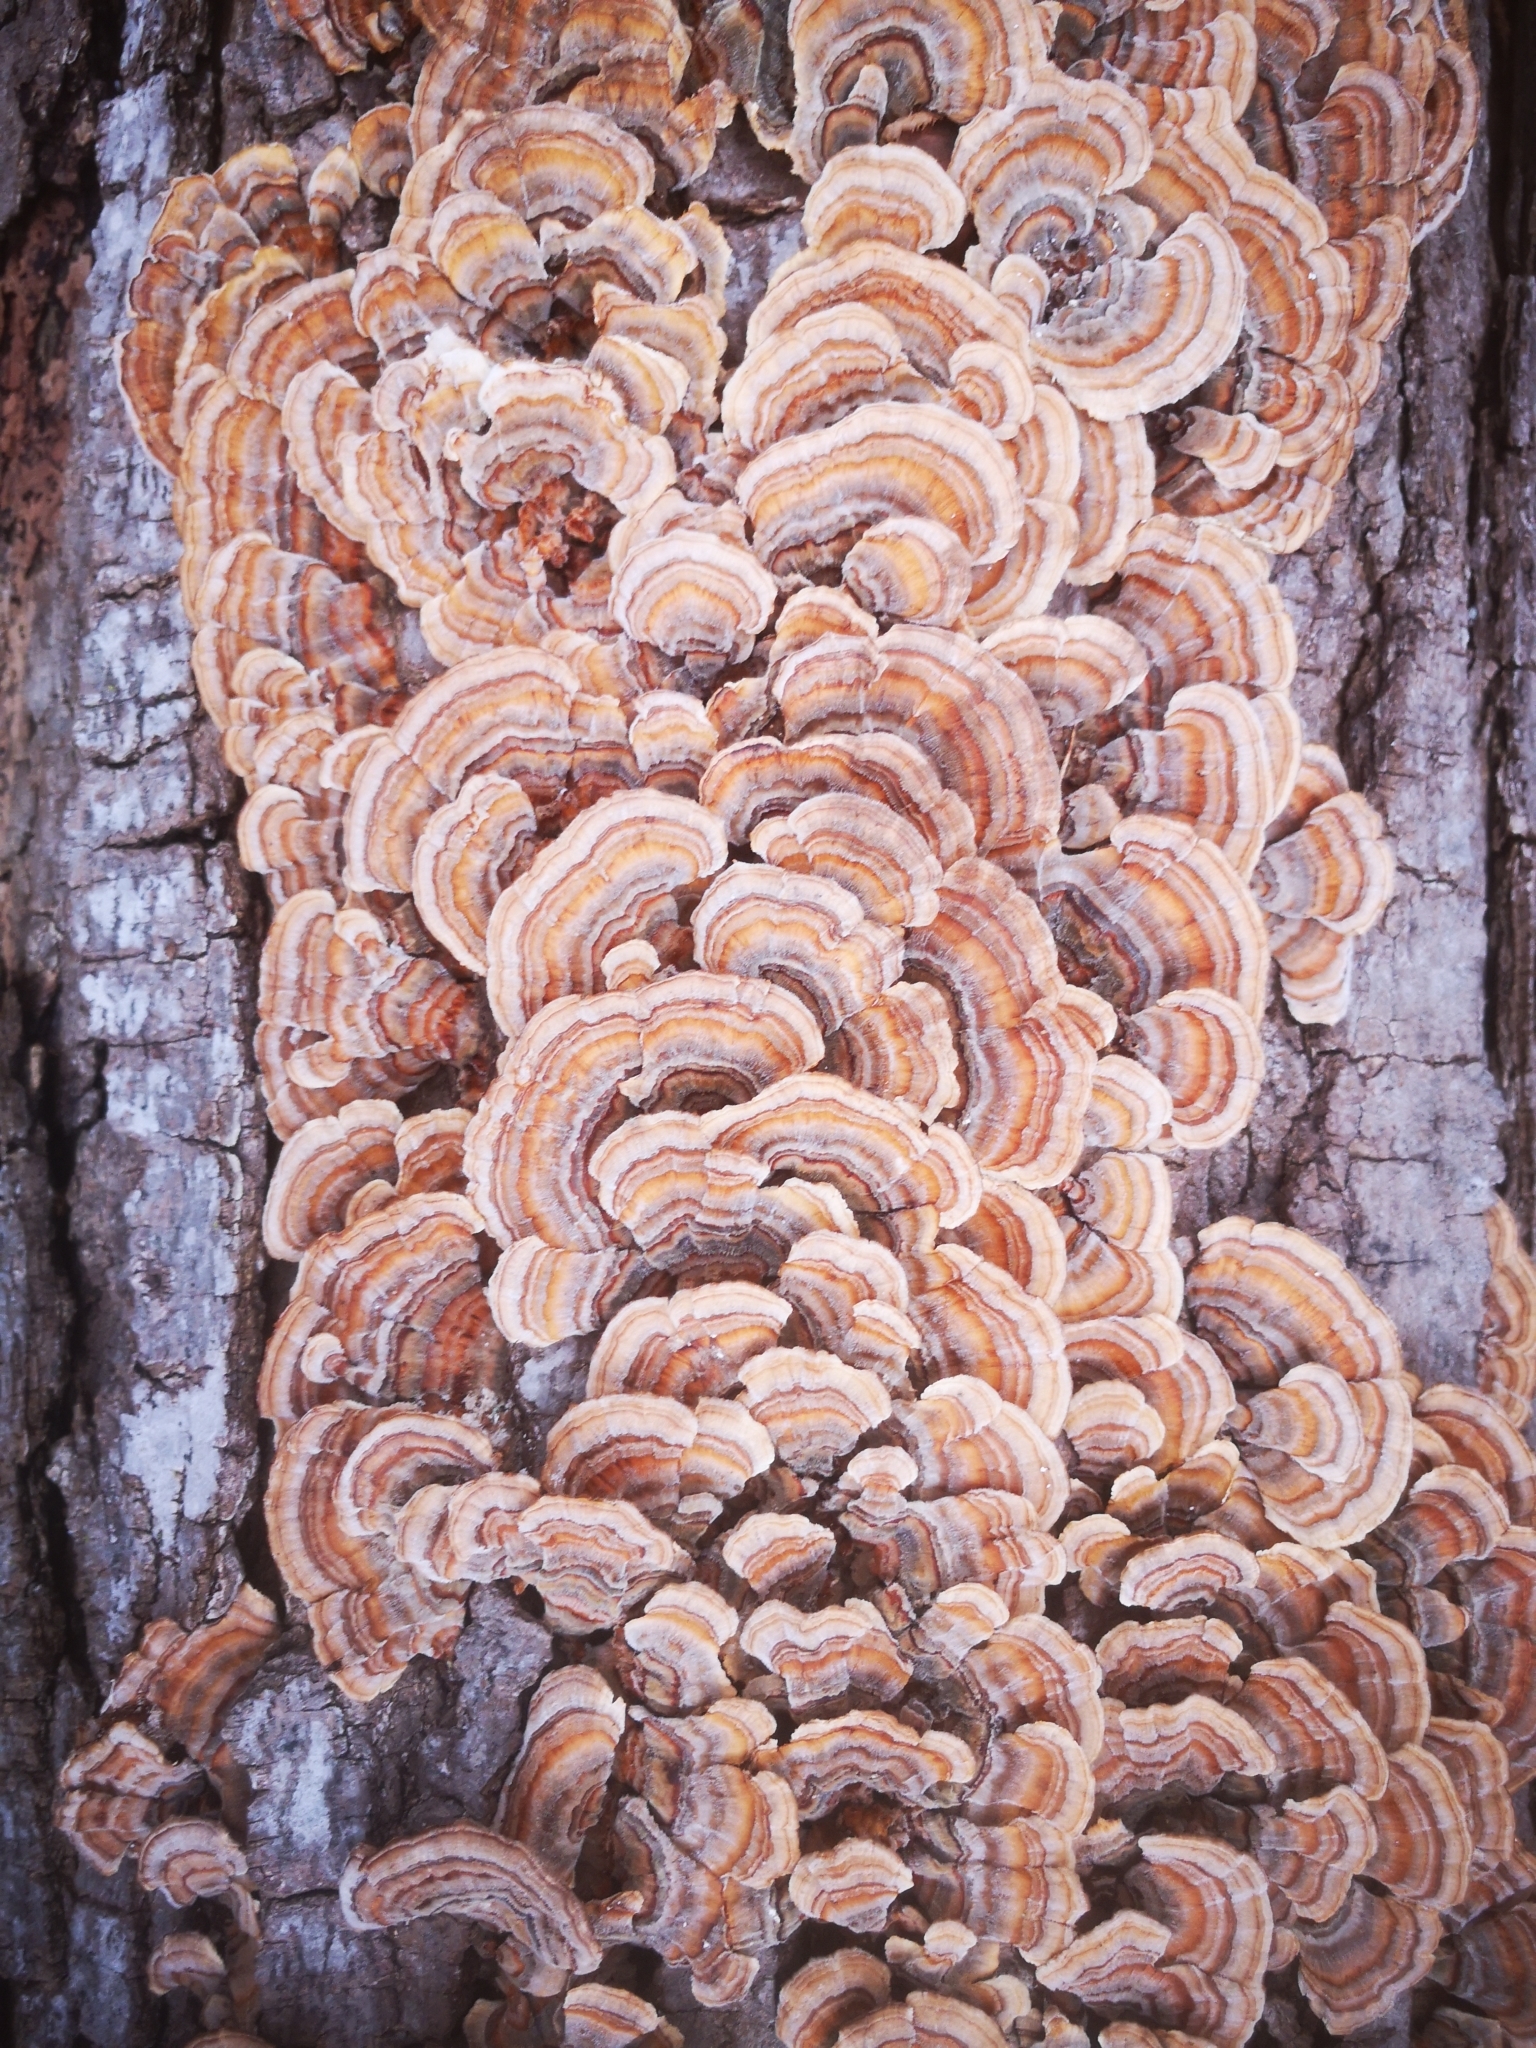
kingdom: Fungi
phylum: Basidiomycota
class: Agaricomycetes
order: Polyporales
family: Polyporaceae
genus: Trametes
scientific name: Trametes versicolor
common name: Turkeytail
